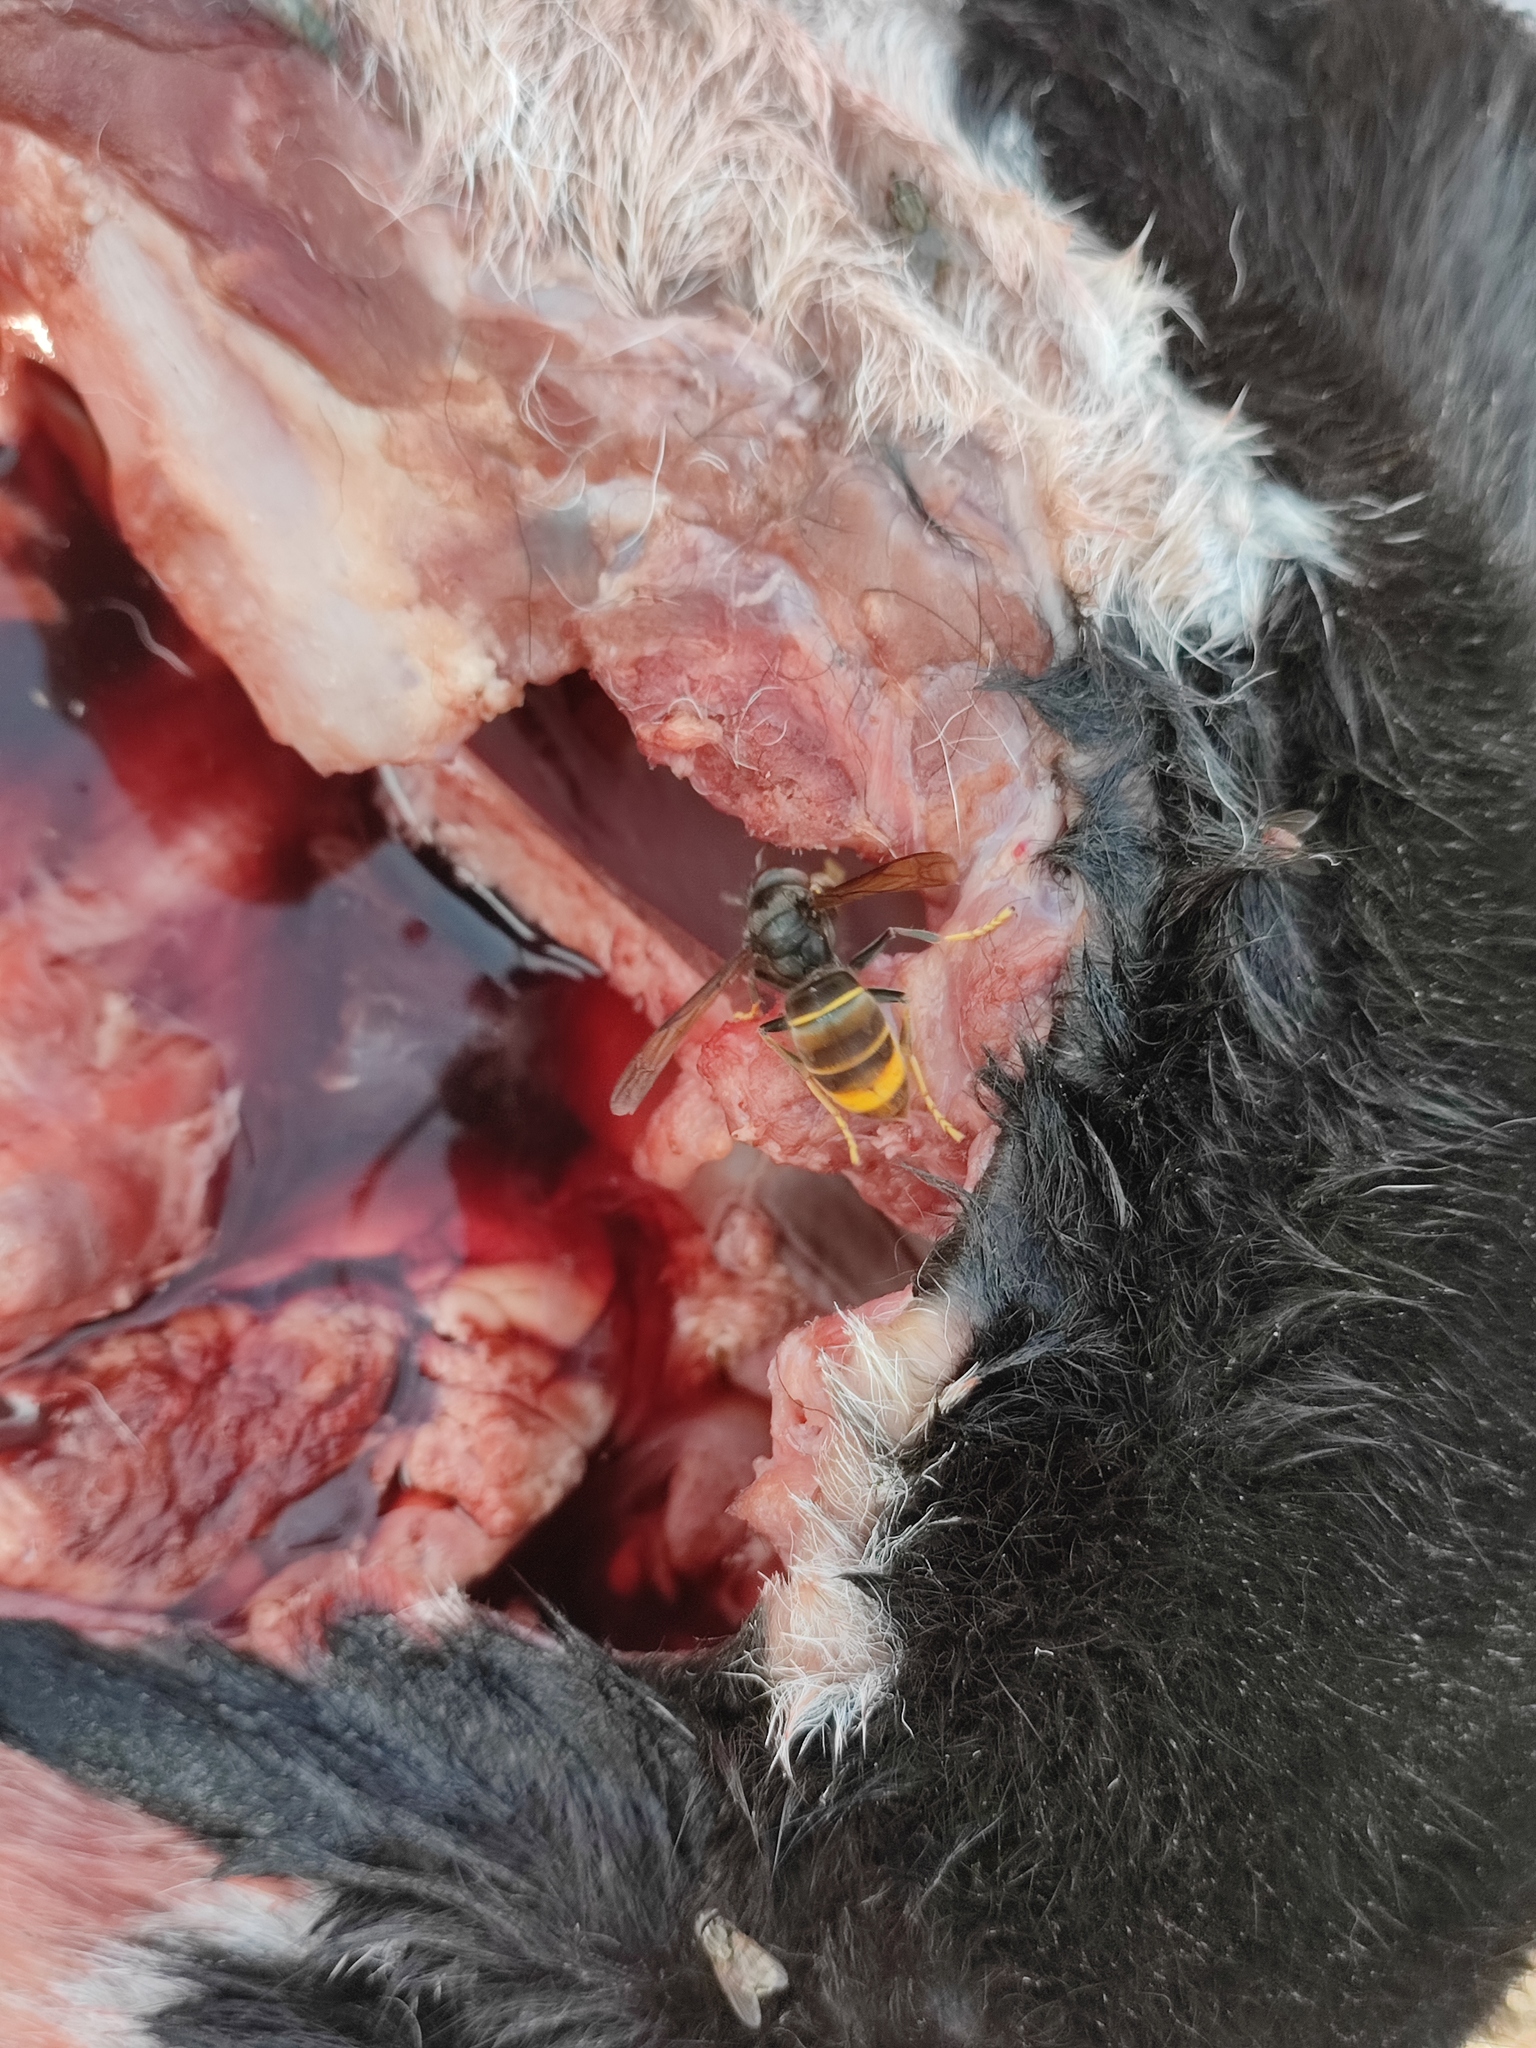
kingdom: Animalia
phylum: Arthropoda
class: Insecta
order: Hymenoptera
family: Vespidae
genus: Vespa
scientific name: Vespa velutina
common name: Asian hornet
